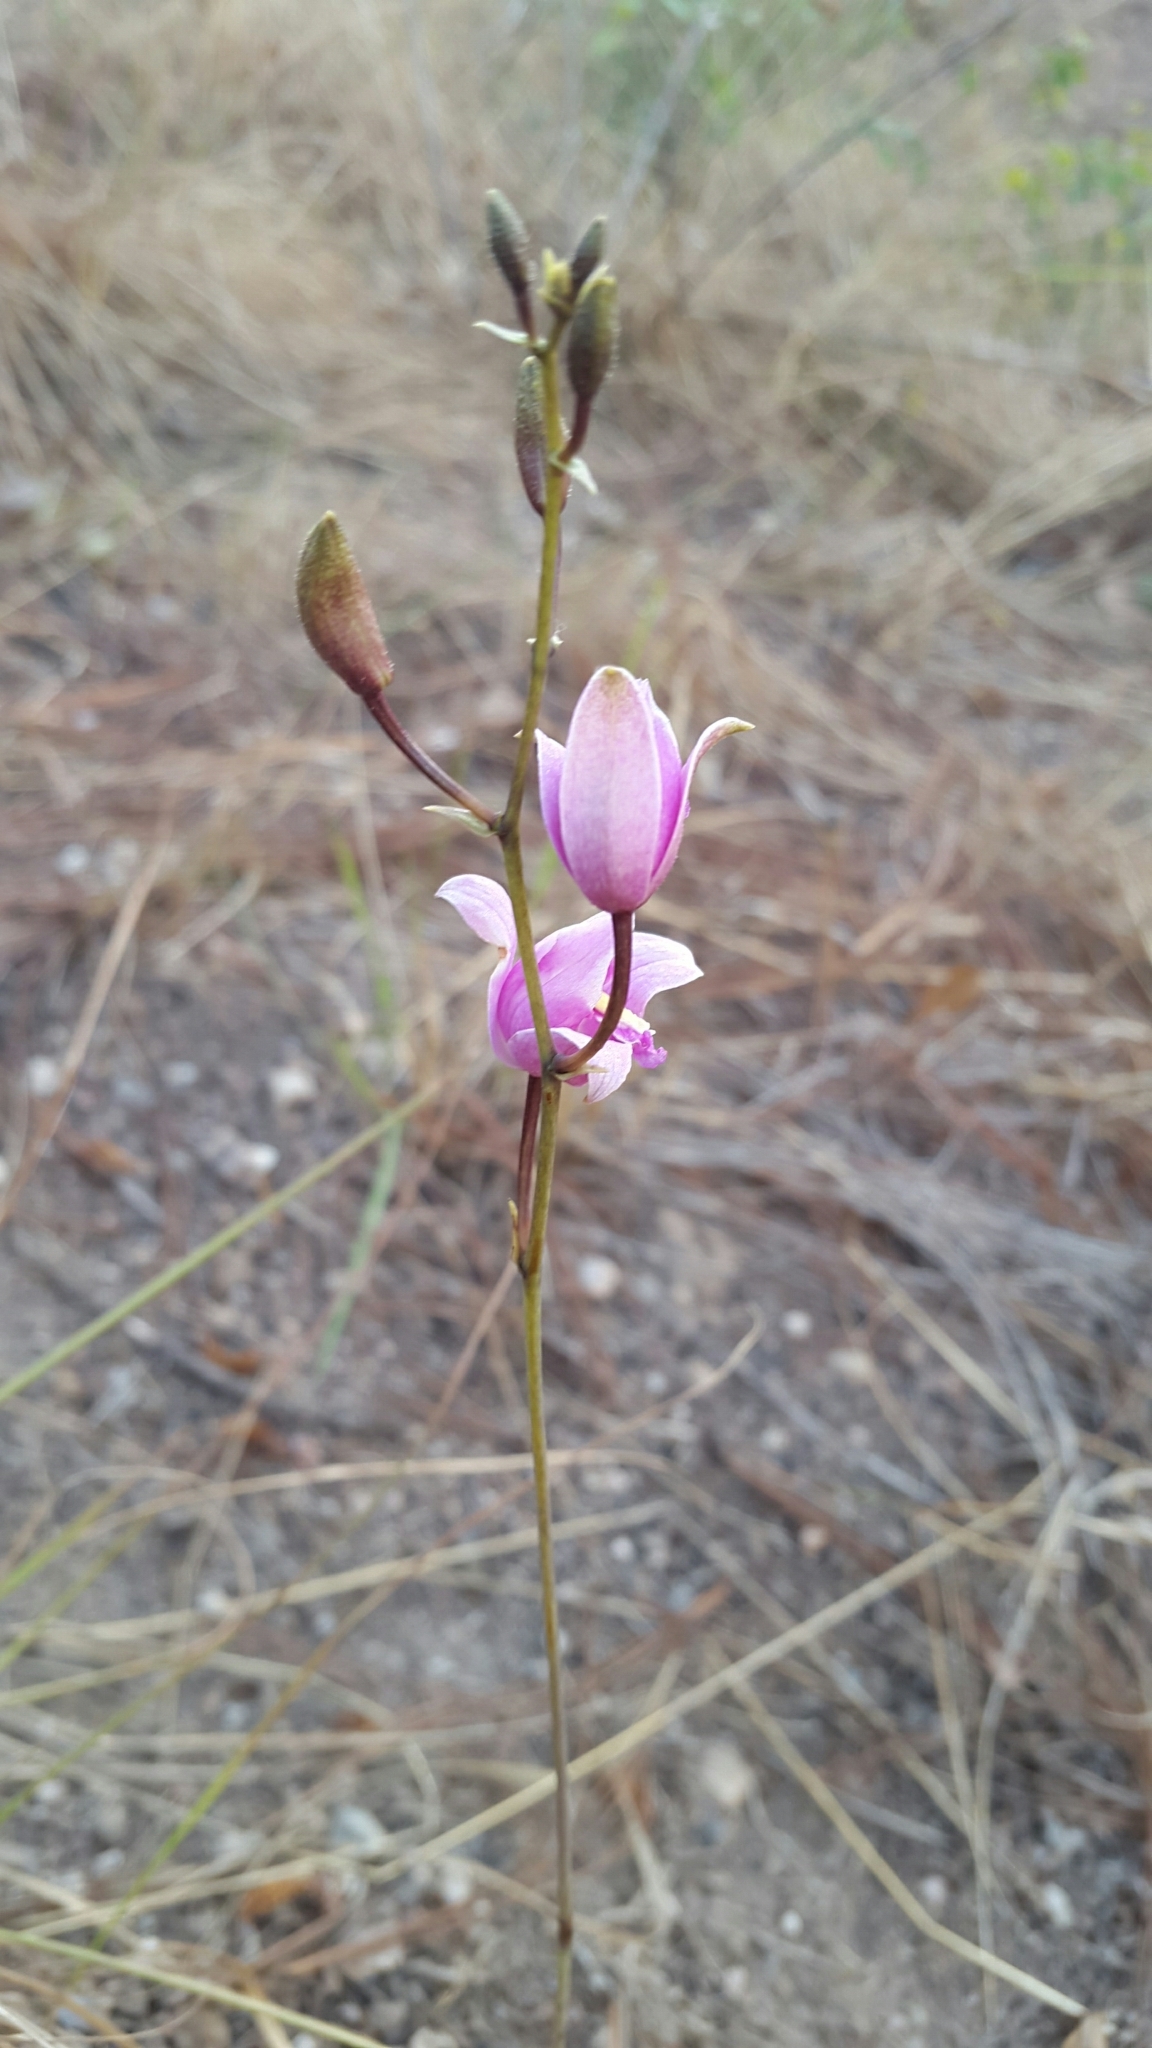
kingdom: Plantae
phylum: Tracheophyta
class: Liliopsida
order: Asparagales
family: Orchidaceae
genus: Bletia
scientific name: Bletia purpurea
